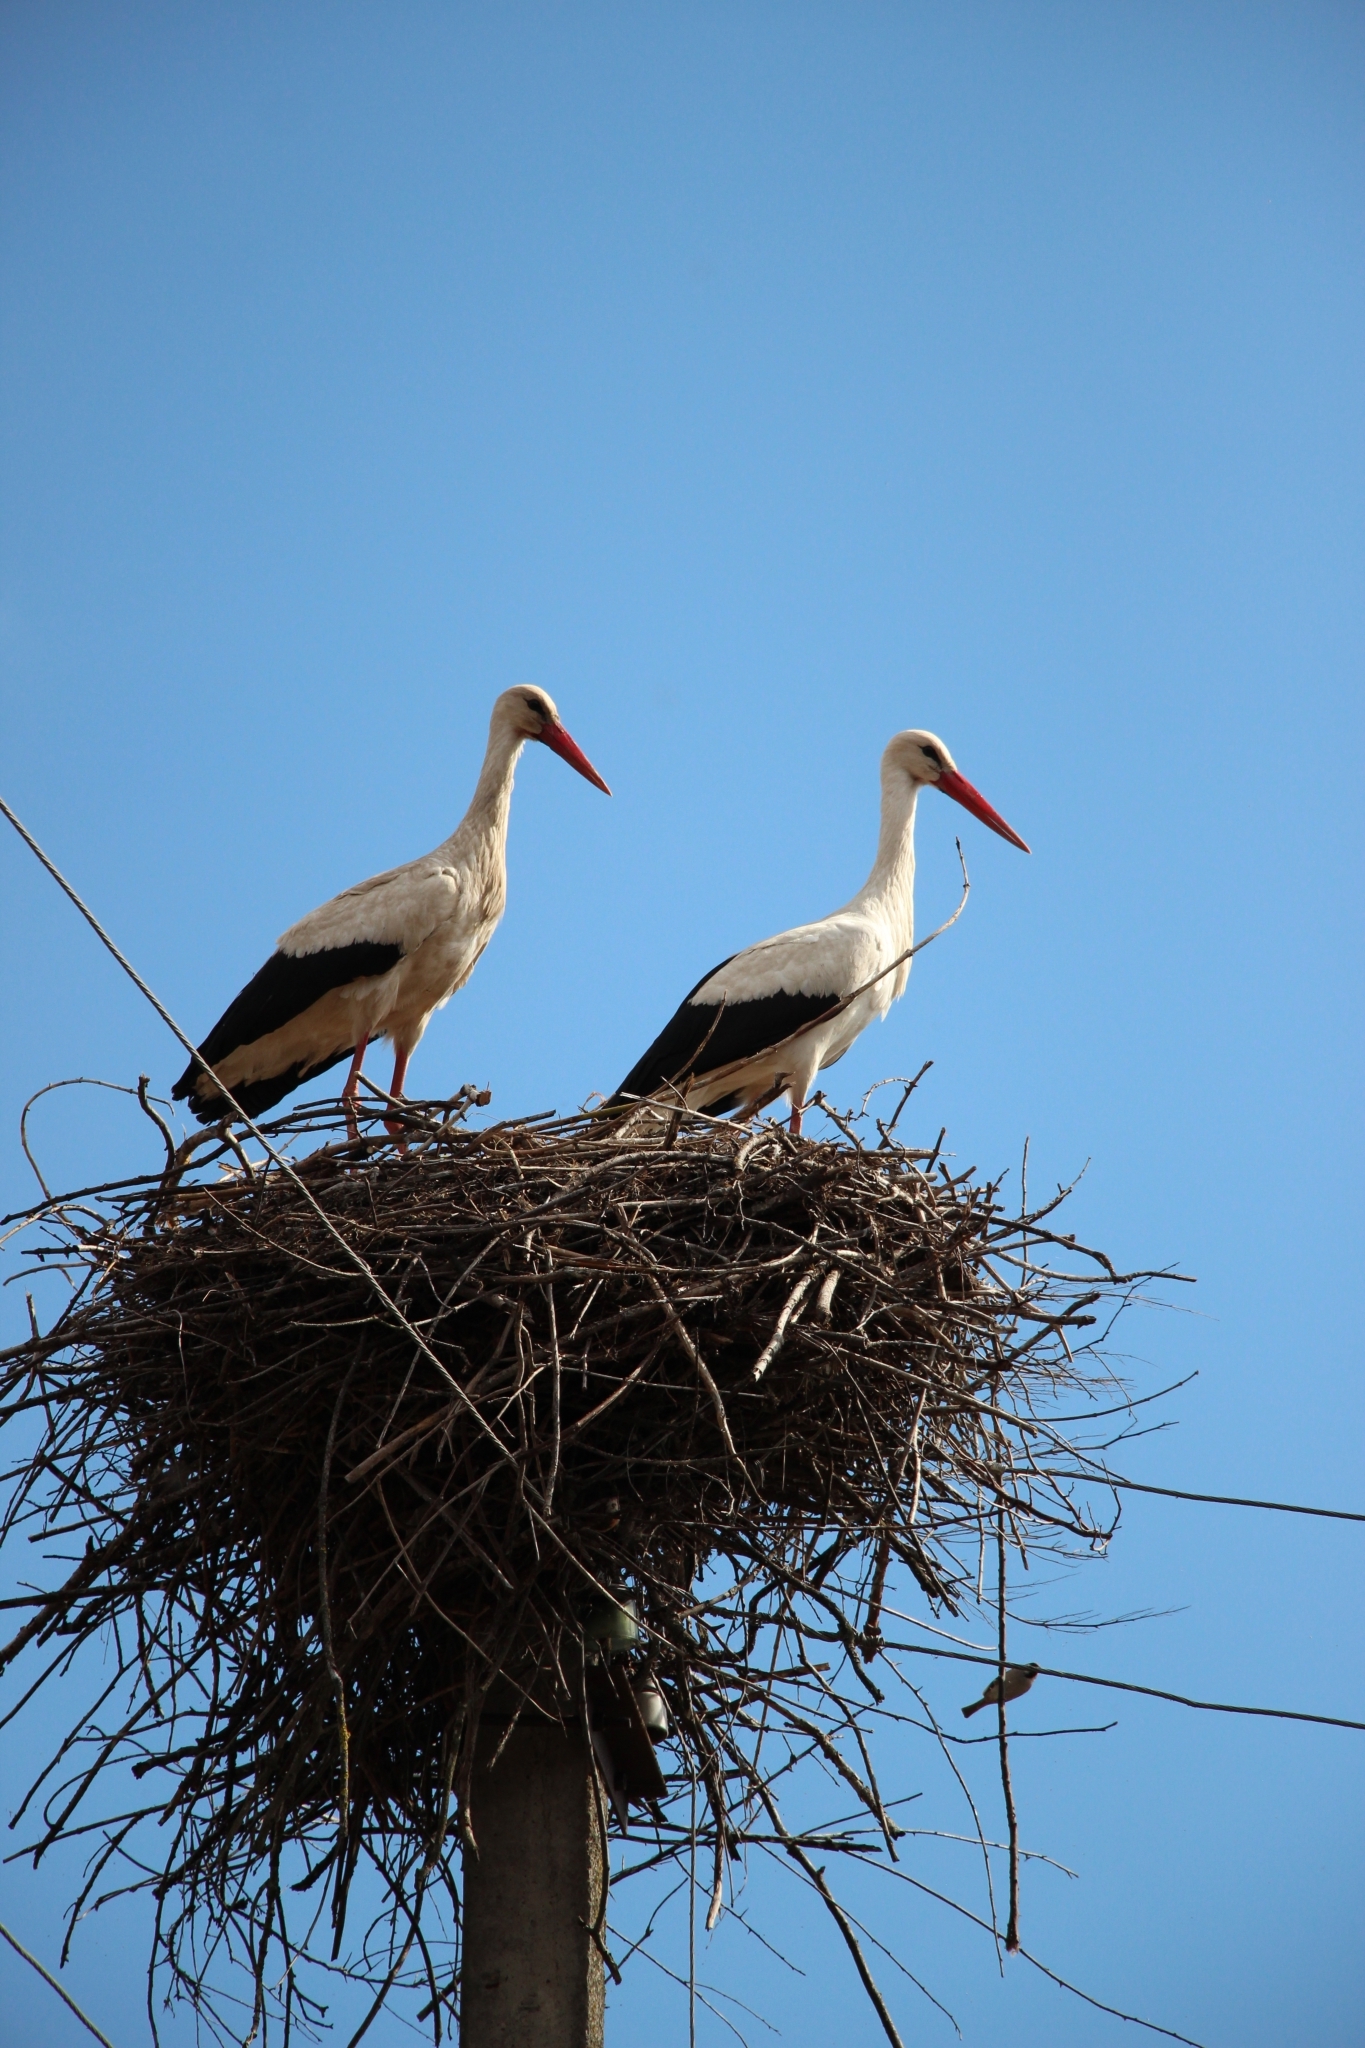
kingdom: Animalia
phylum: Chordata
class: Aves
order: Ciconiiformes
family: Ciconiidae
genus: Ciconia
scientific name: Ciconia ciconia
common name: White stork
